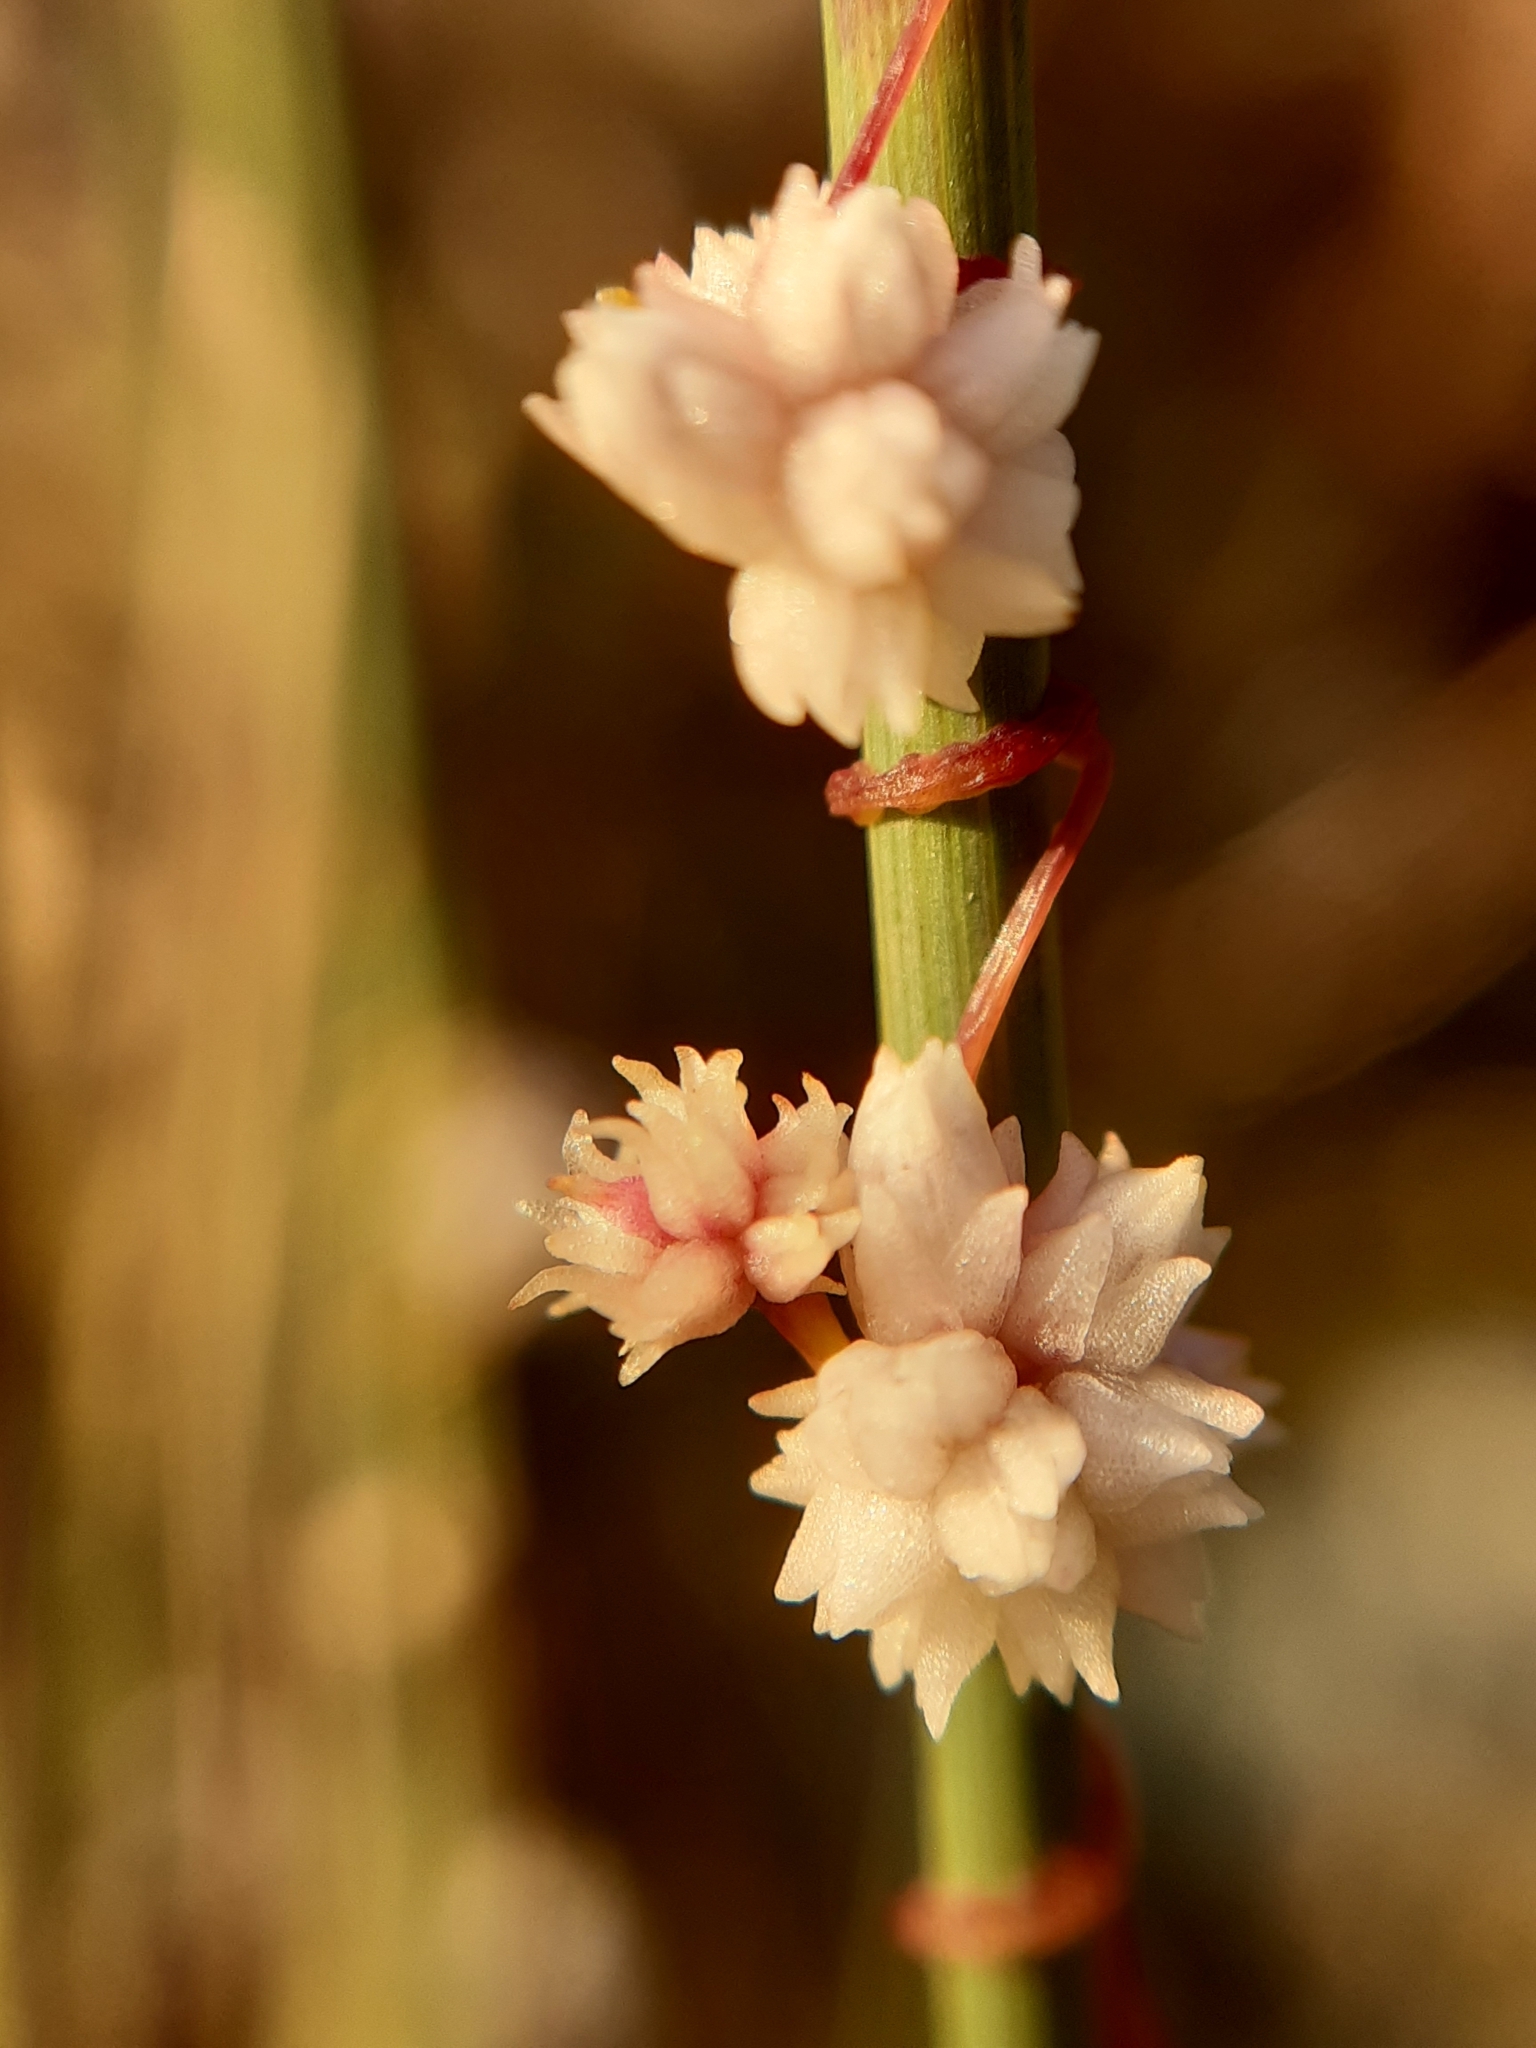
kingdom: Plantae
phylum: Tracheophyta
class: Magnoliopsida
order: Solanales
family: Convolvulaceae
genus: Cuscuta
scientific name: Cuscuta epithymum
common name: Clover dodder
